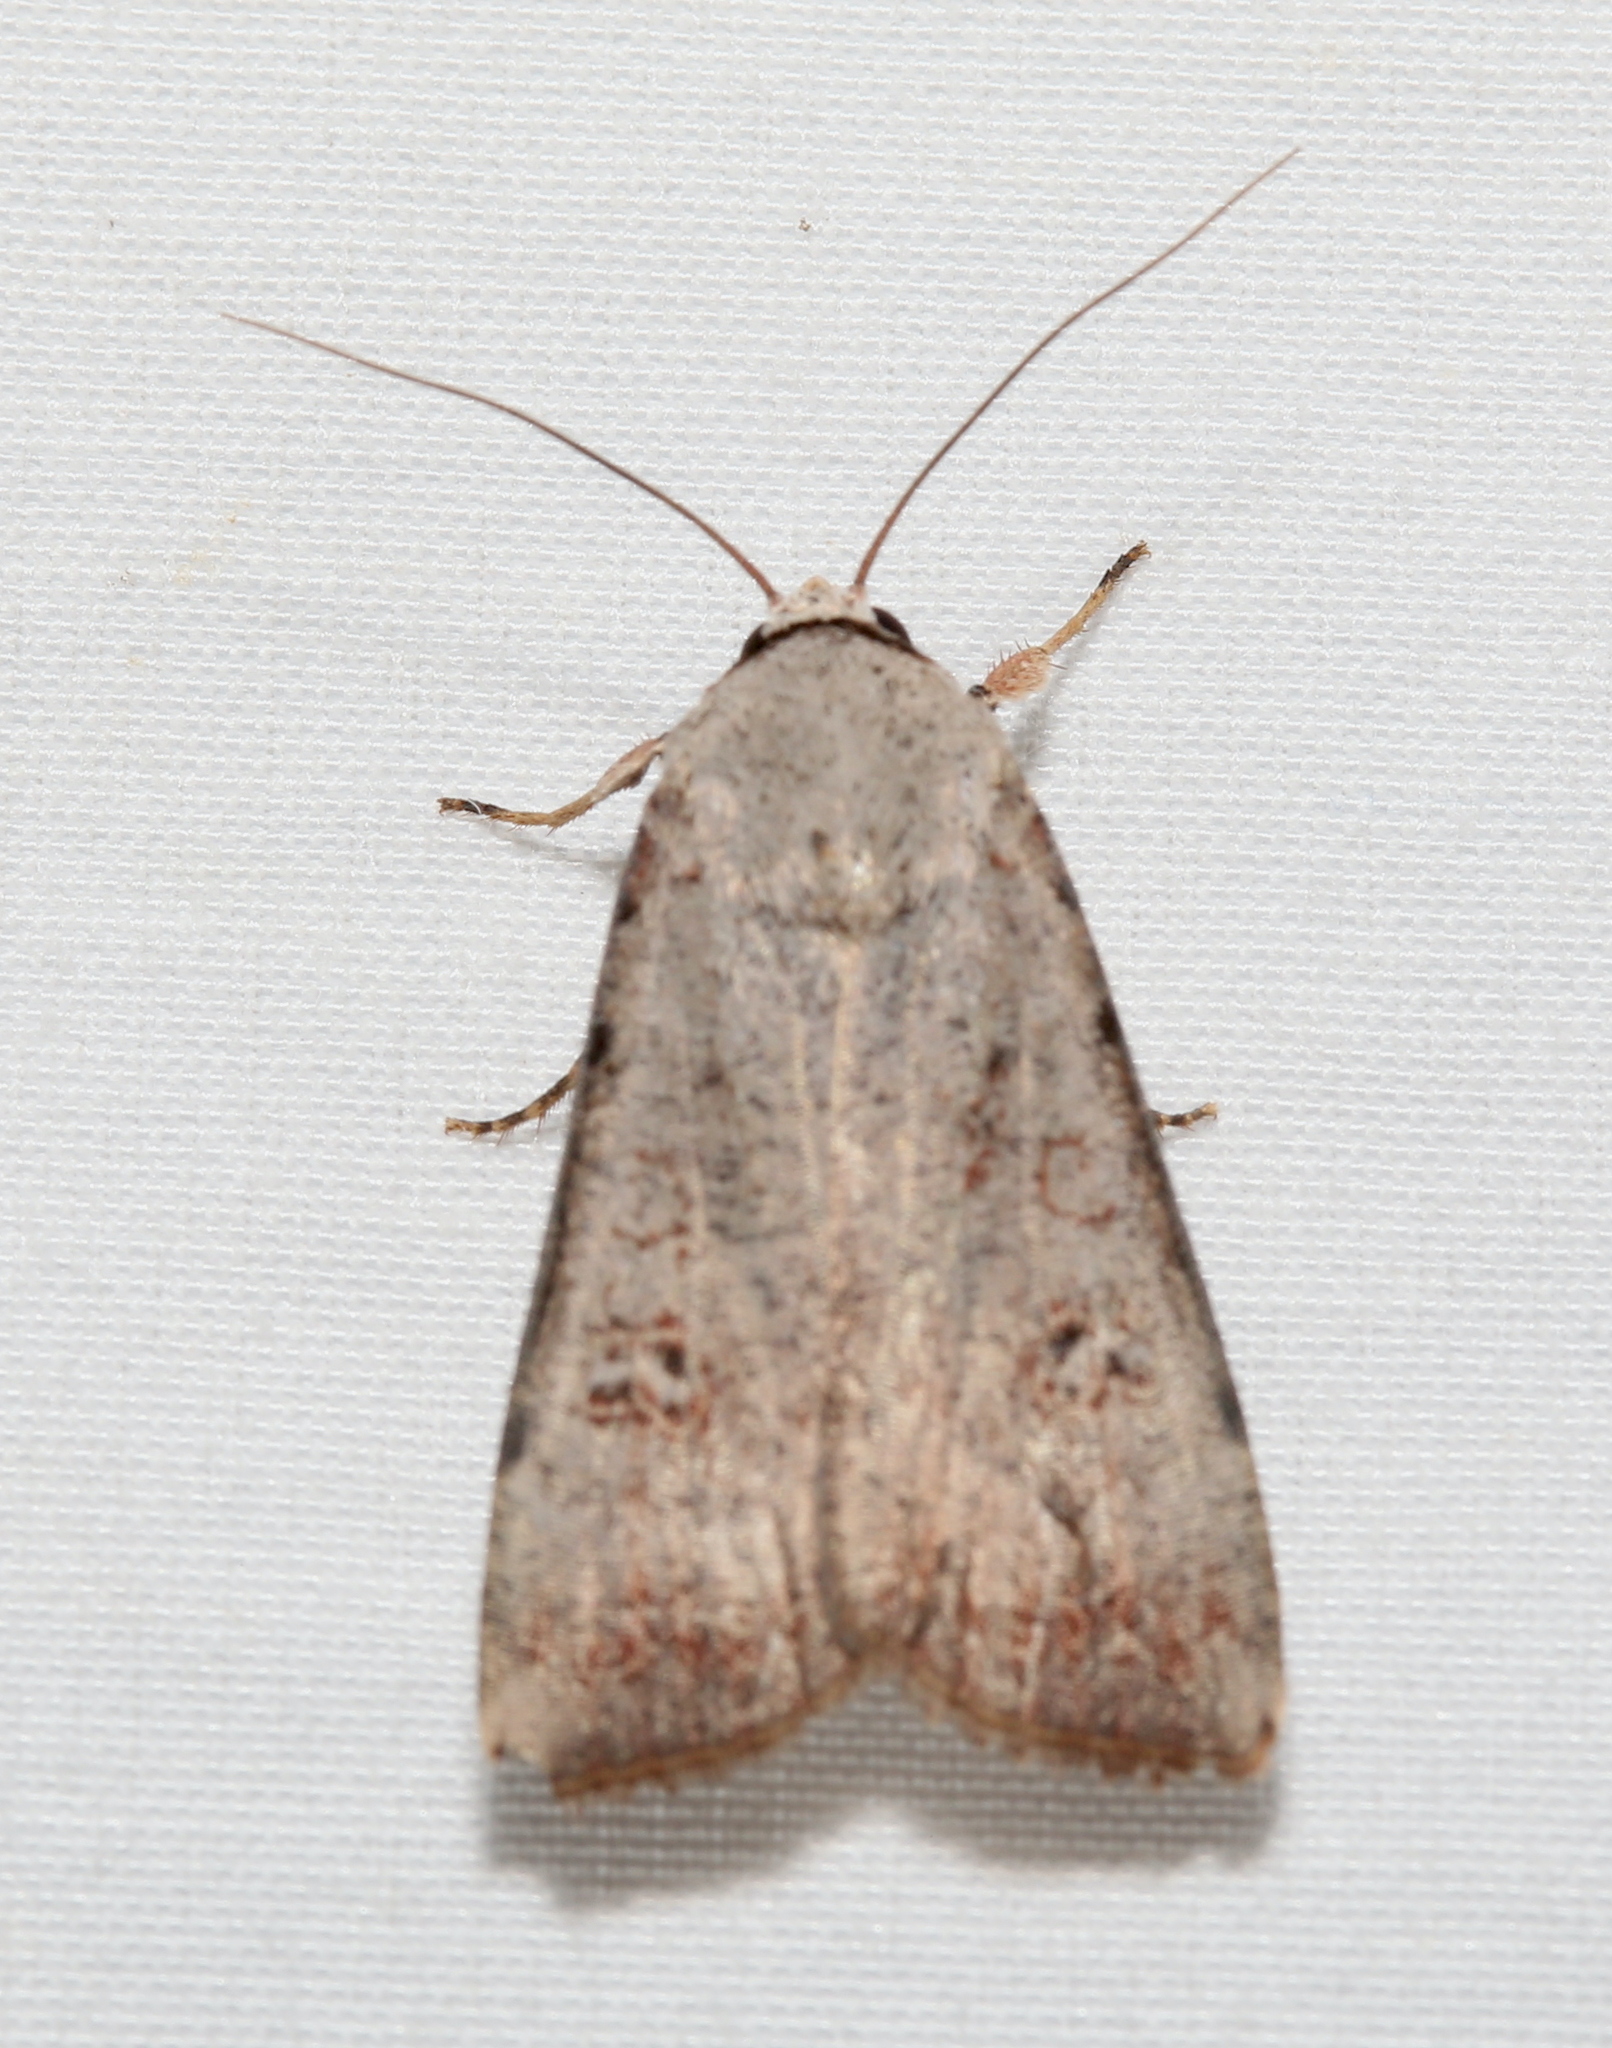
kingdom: Animalia
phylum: Arthropoda
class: Insecta
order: Lepidoptera
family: Noctuidae
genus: Anicla
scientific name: Anicla infecta
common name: Green cutworm
